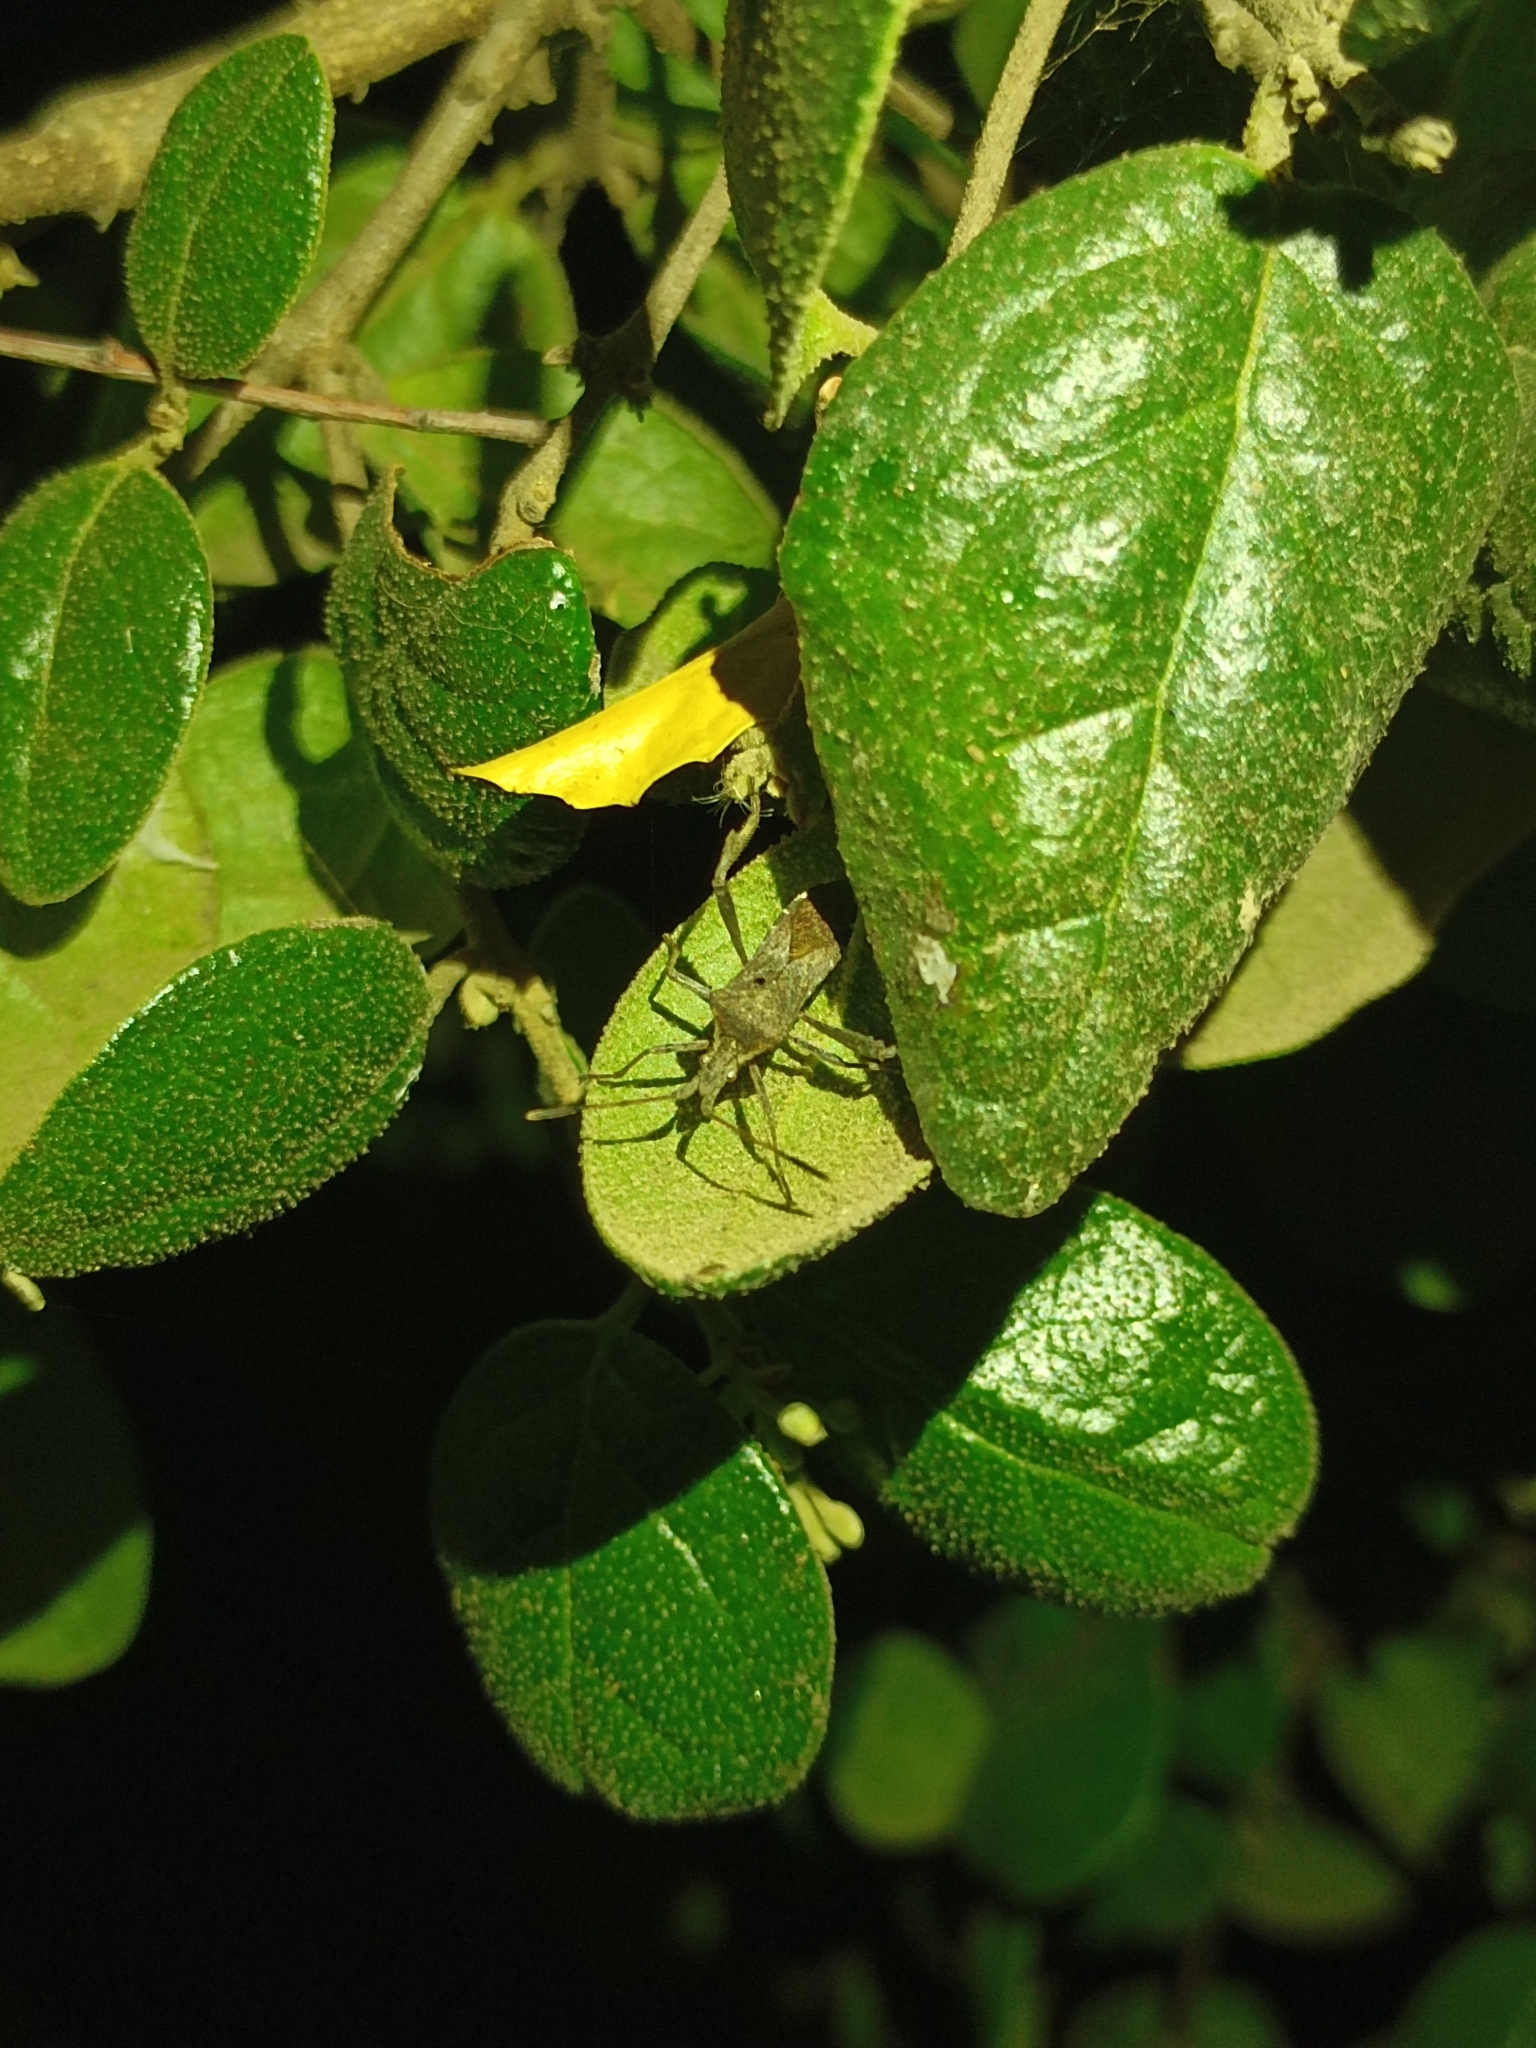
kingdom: Animalia
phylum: Arthropoda
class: Insecta
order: Hemiptera
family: Coreidae
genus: Leptoglossus
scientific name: Leptoglossus chilensis
